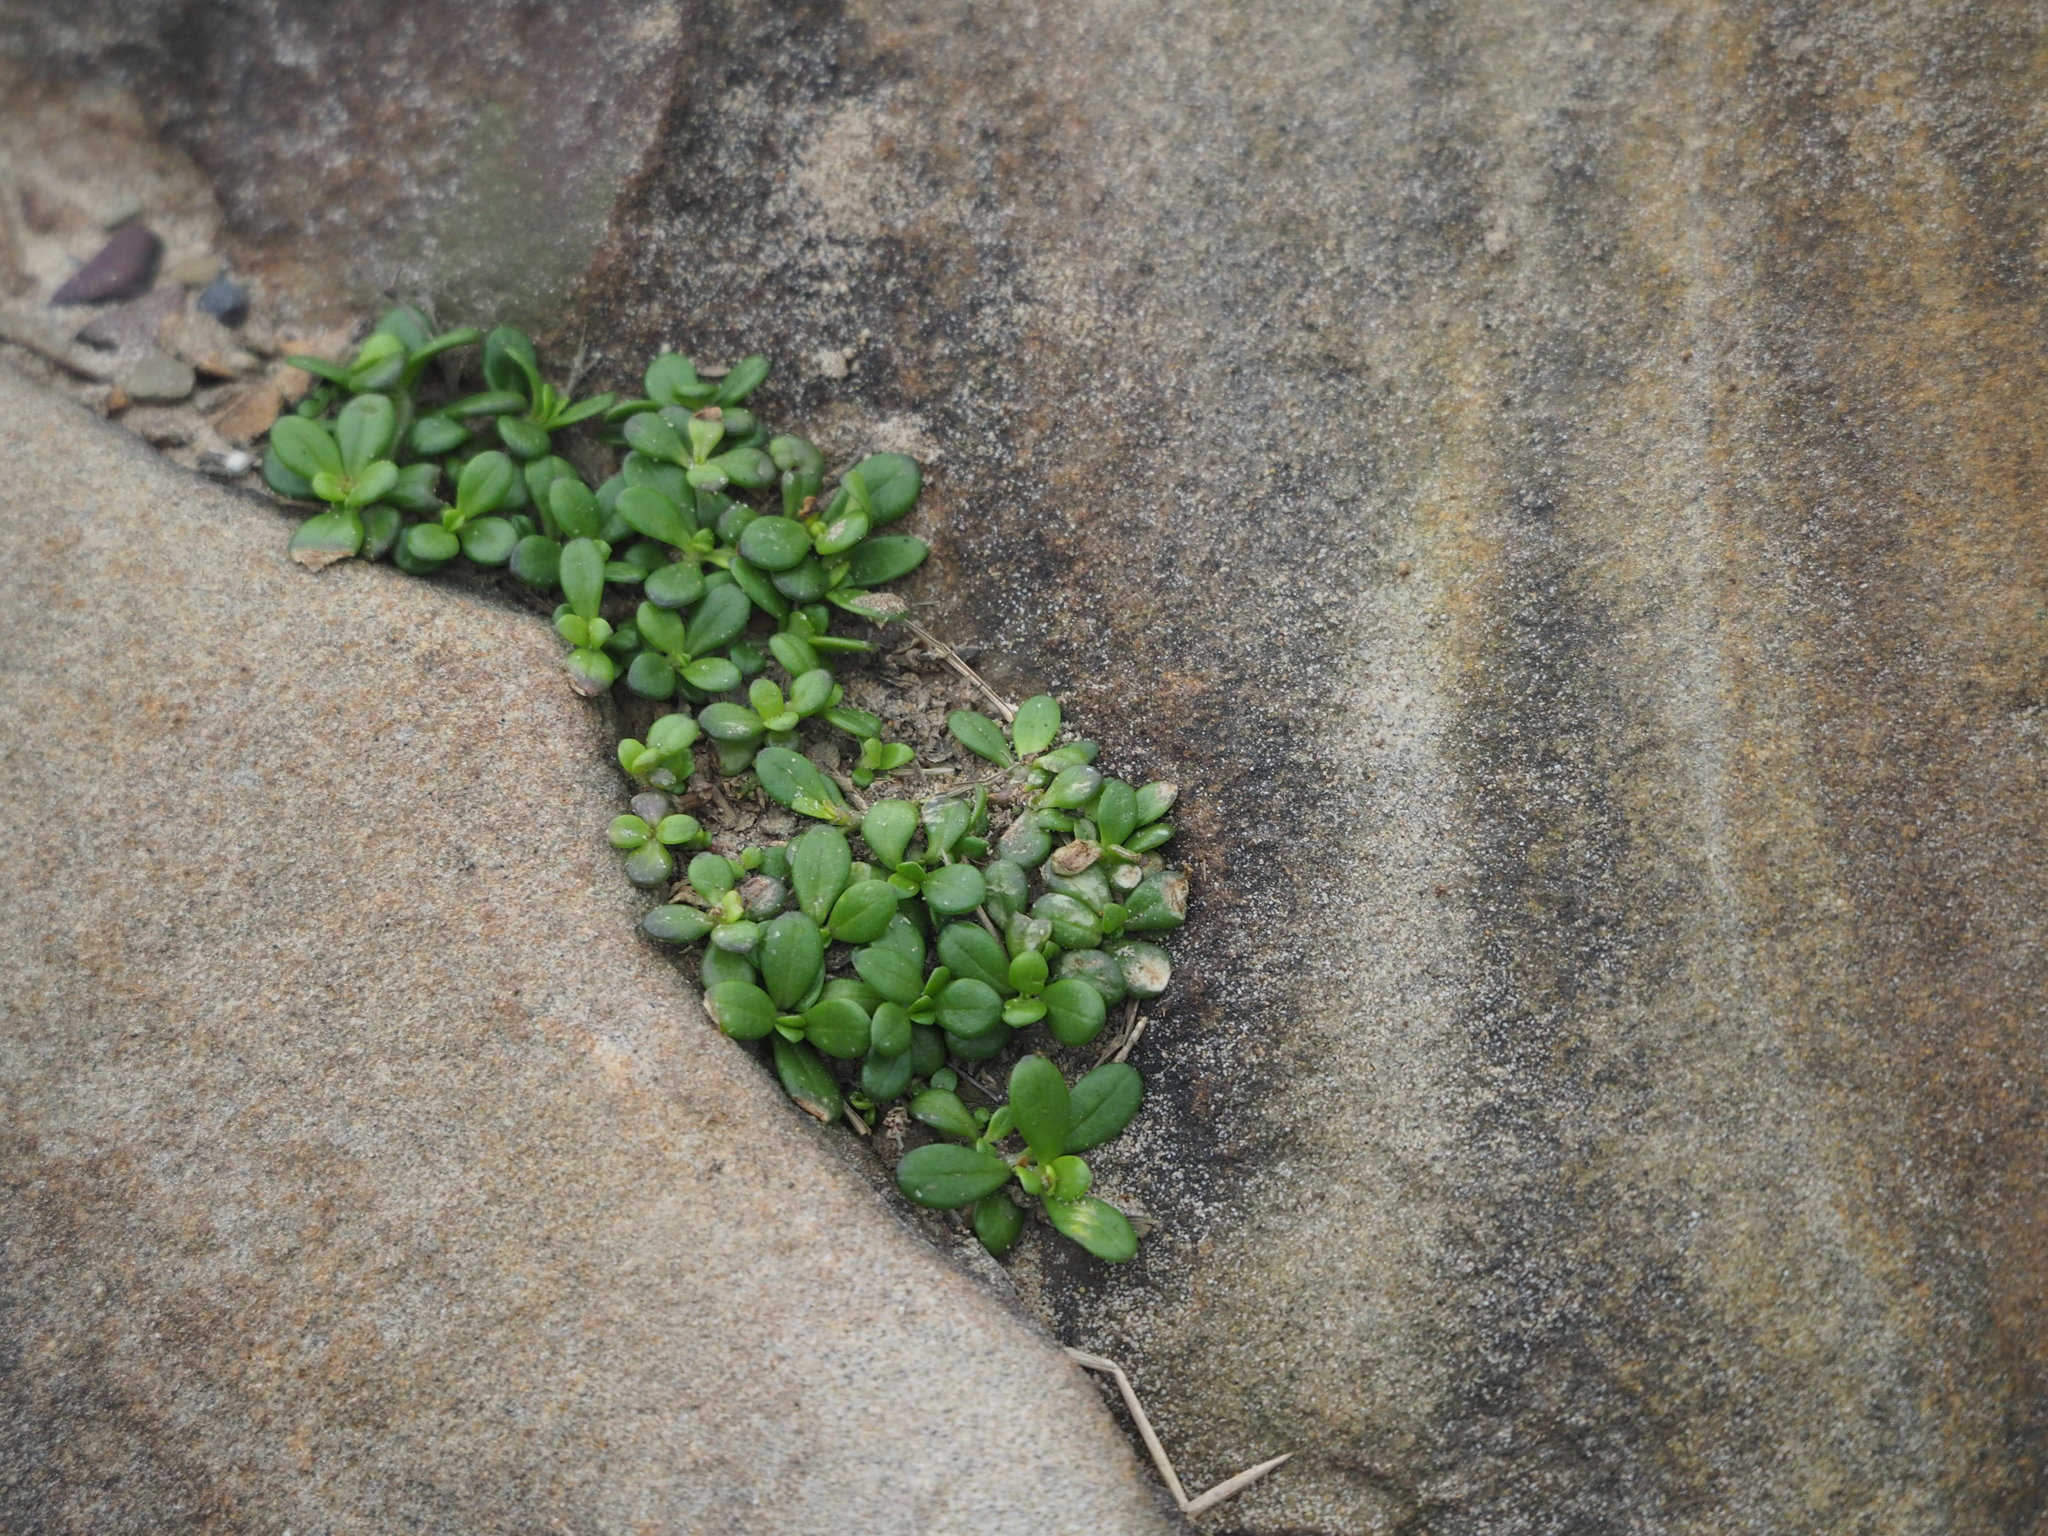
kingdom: Plantae
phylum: Tracheophyta
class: Magnoliopsida
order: Gentianales
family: Rubiaceae
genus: Leptopetalum
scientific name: Leptopetalum strigulosum
